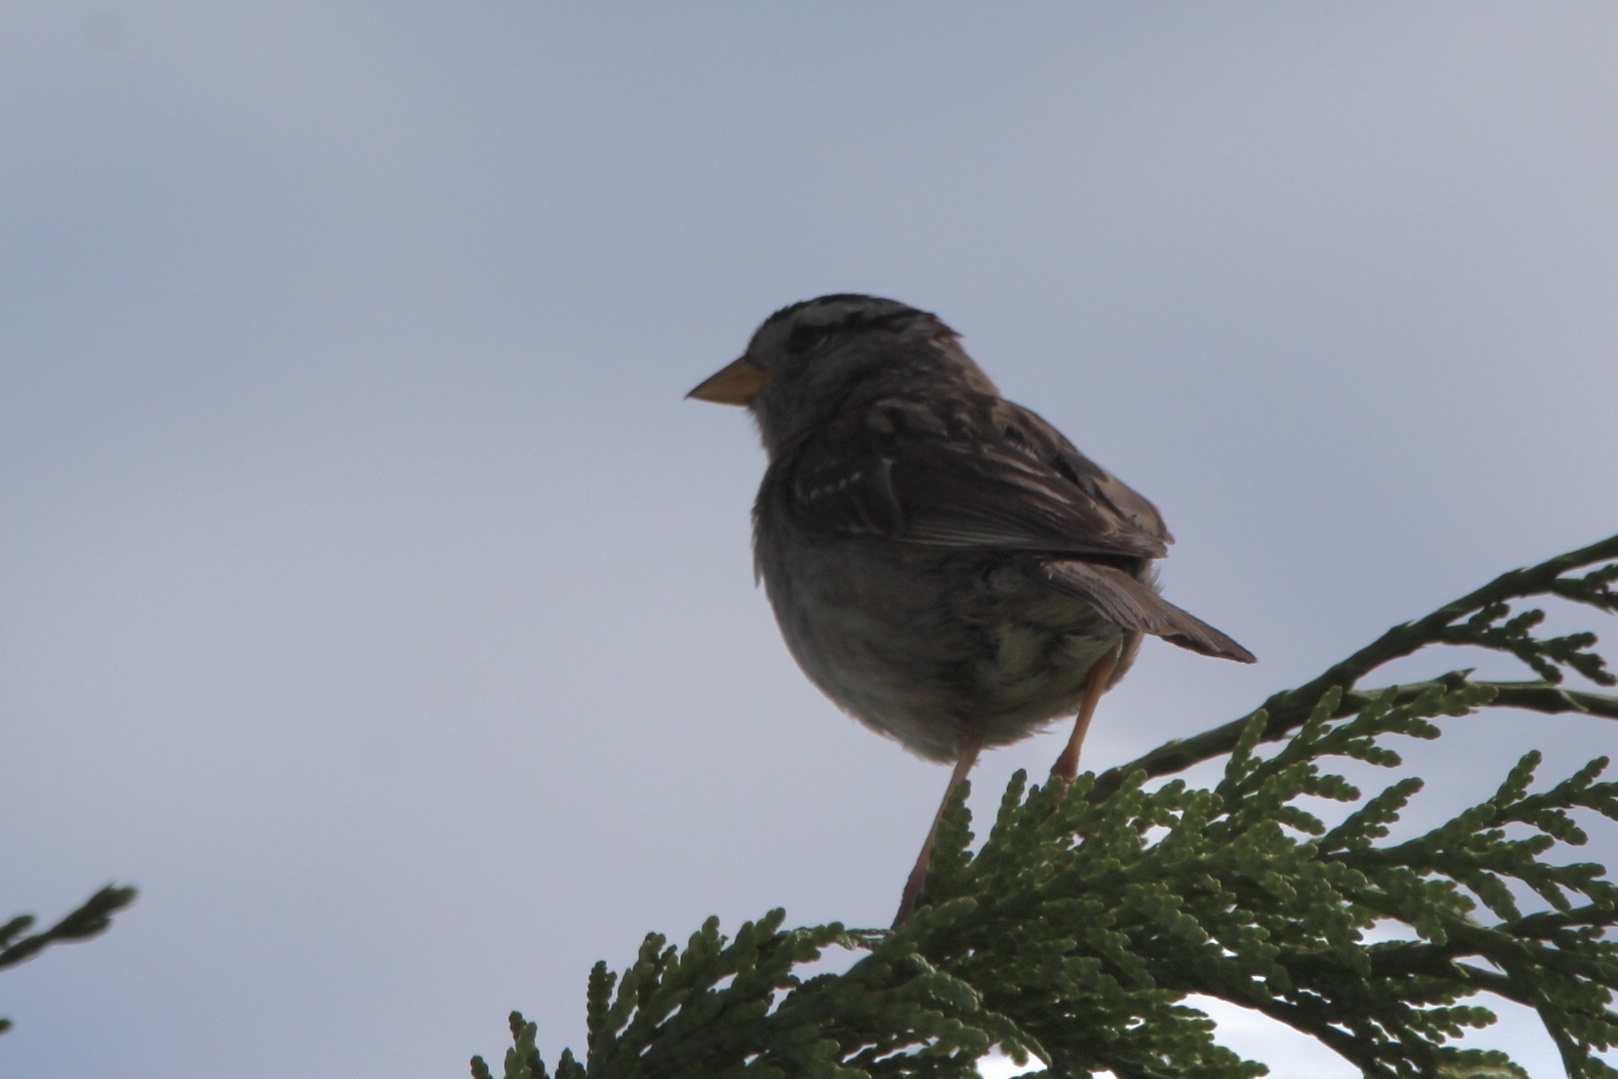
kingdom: Animalia
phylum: Chordata
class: Aves
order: Passeriformes
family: Passerellidae
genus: Zonotrichia
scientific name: Zonotrichia leucophrys
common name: White-crowned sparrow
